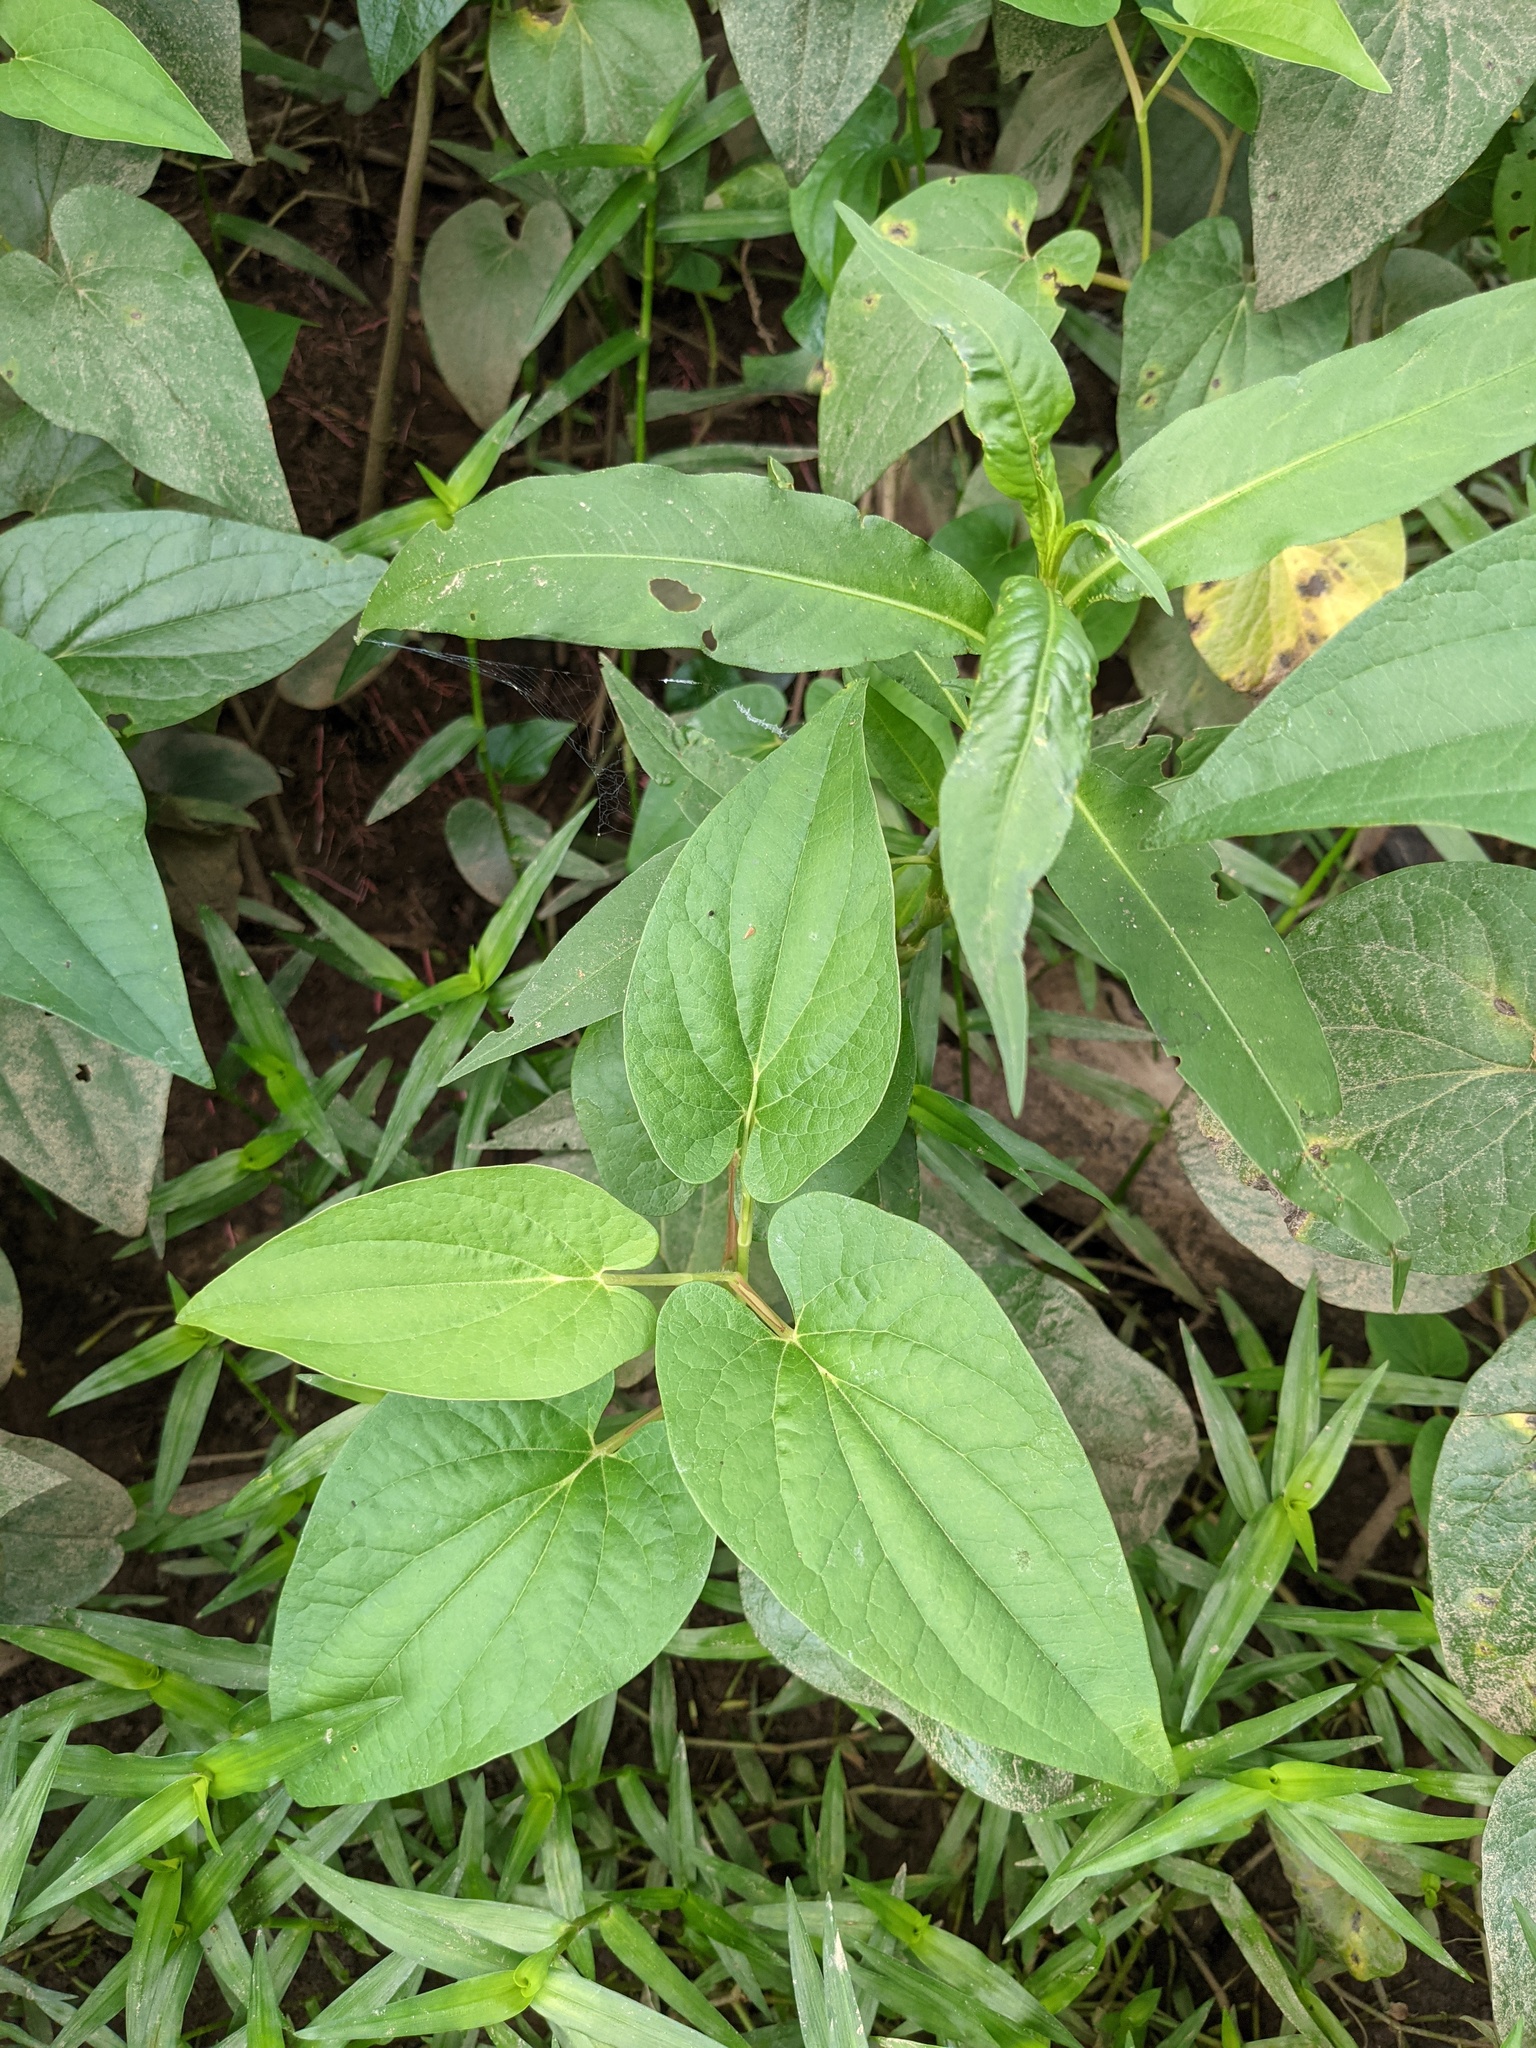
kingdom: Plantae
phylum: Tracheophyta
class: Magnoliopsida
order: Piperales
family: Saururaceae
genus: Saururus
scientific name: Saururus cernuus
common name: Lizard's-tail
